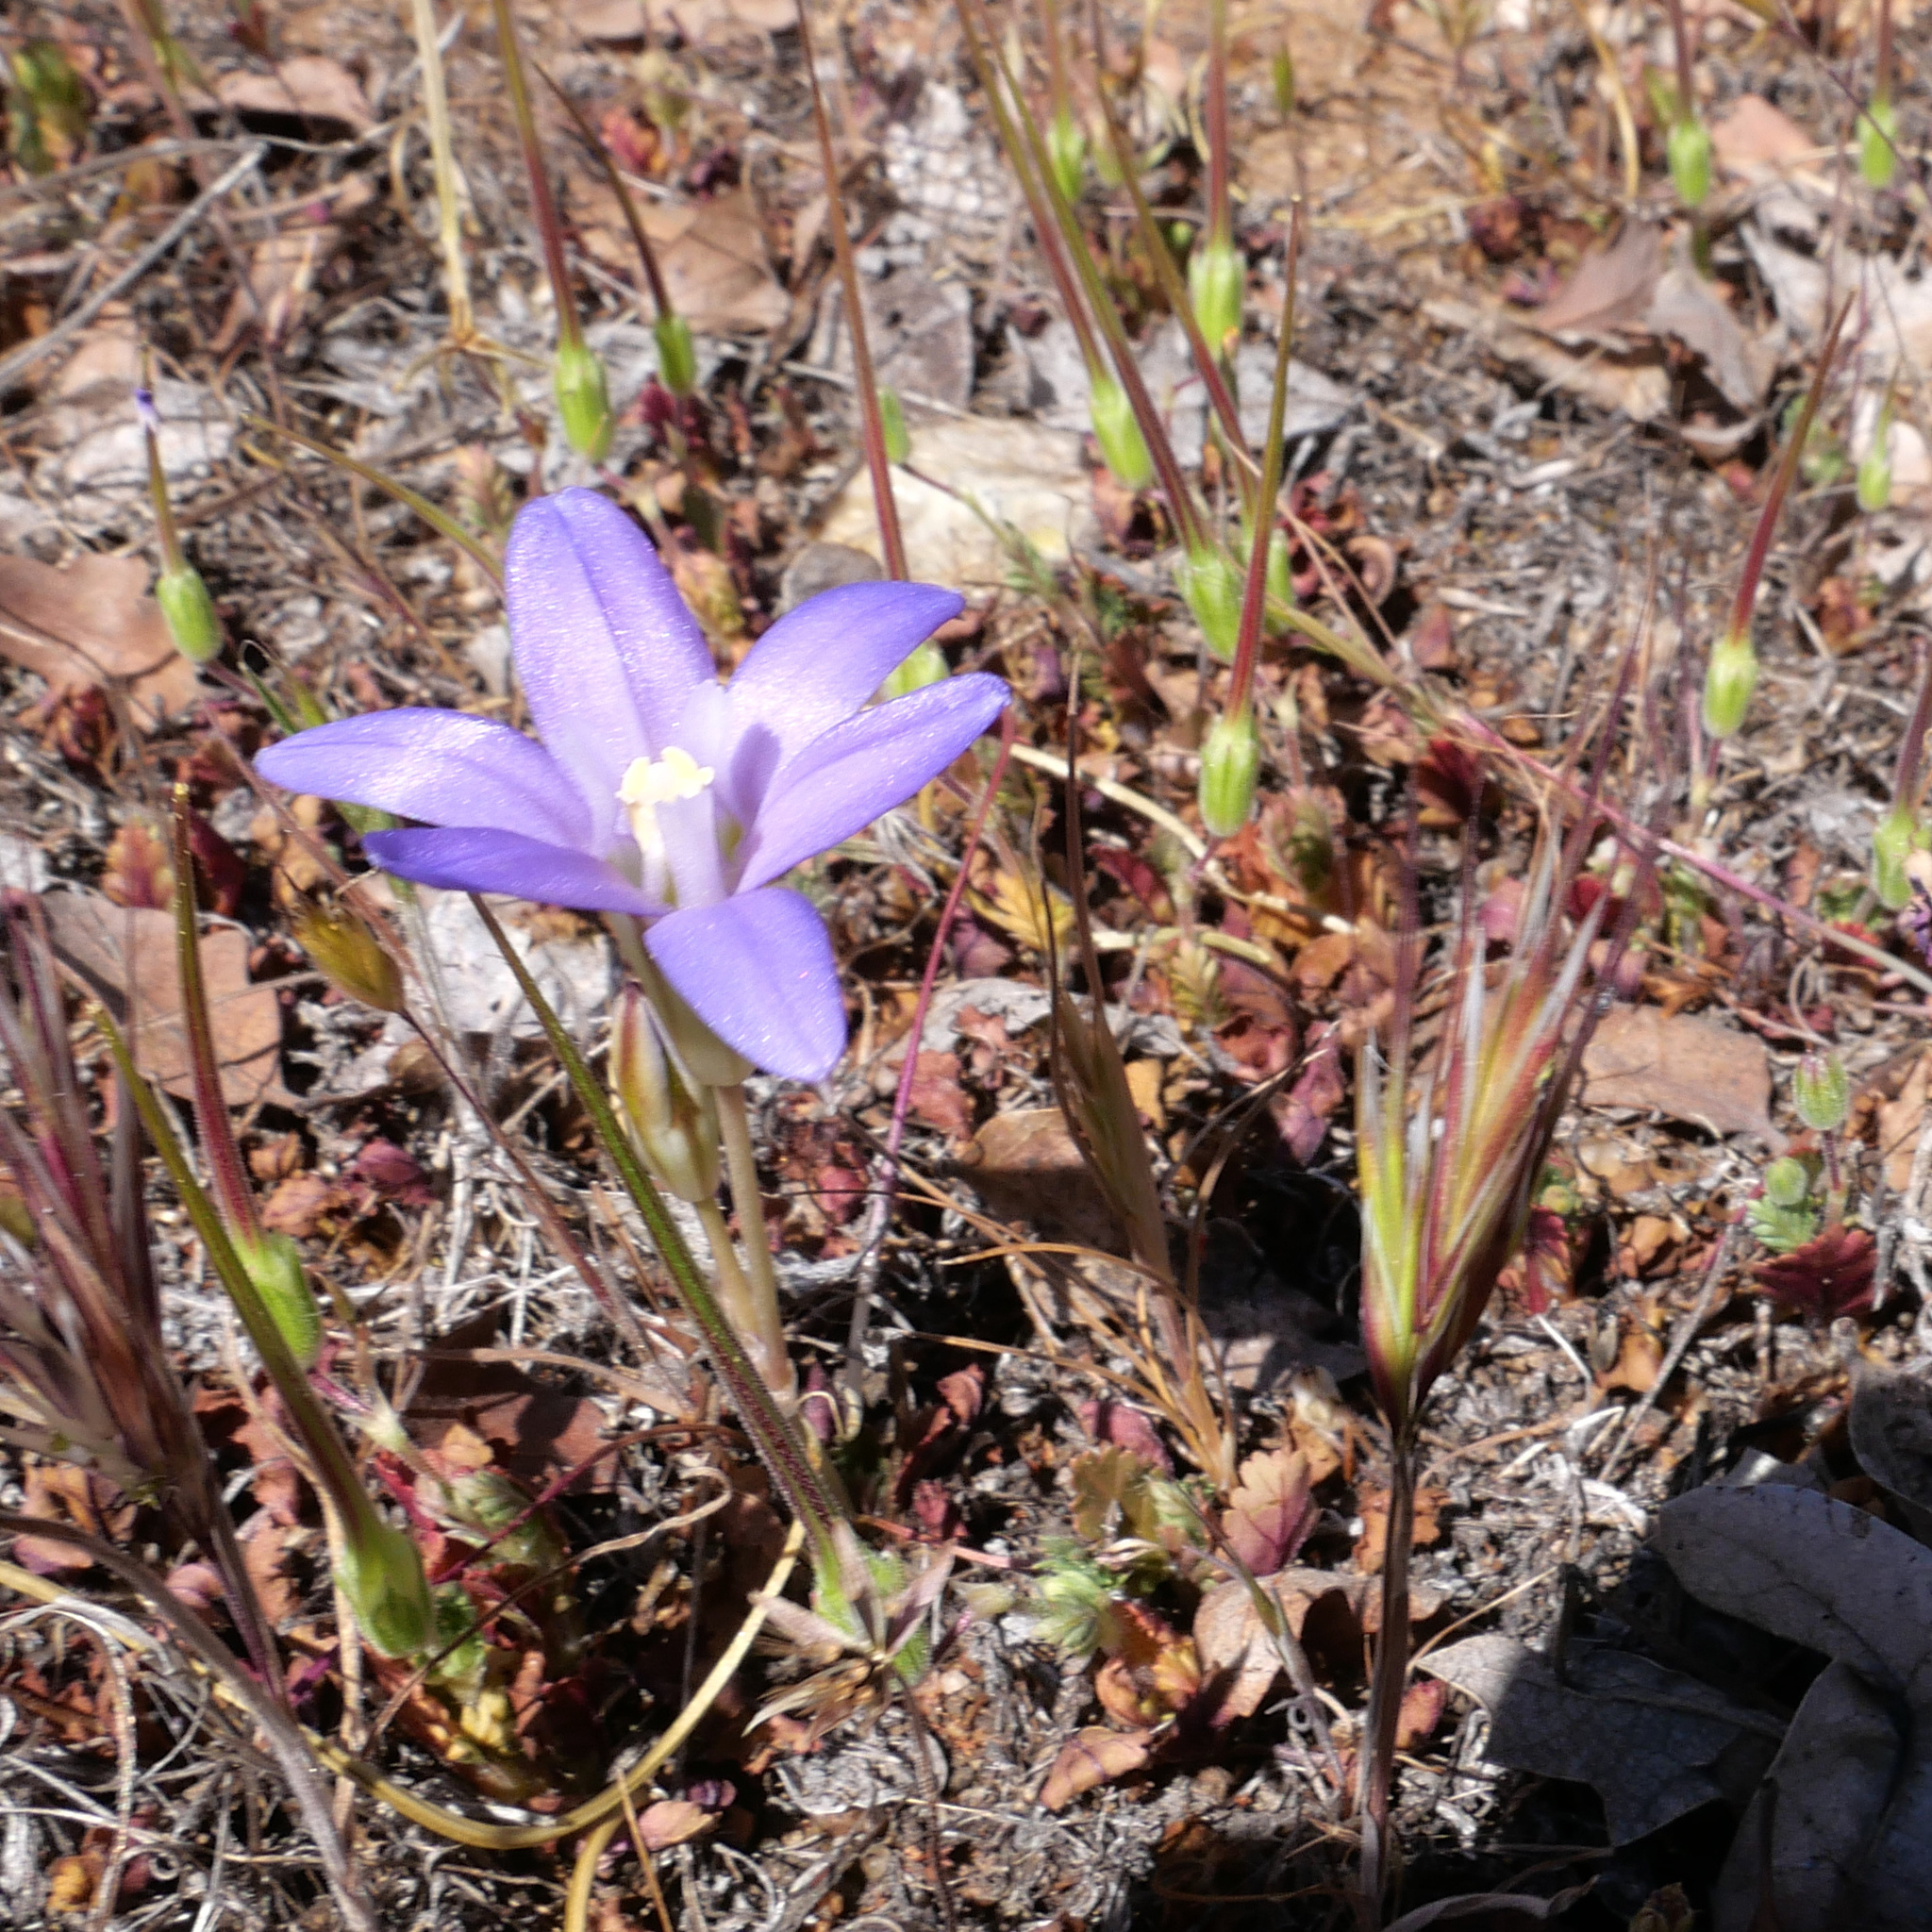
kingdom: Plantae
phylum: Tracheophyta
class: Liliopsida
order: Asparagales
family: Asparagaceae
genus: Brodiaea
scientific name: Brodiaea terrestris
